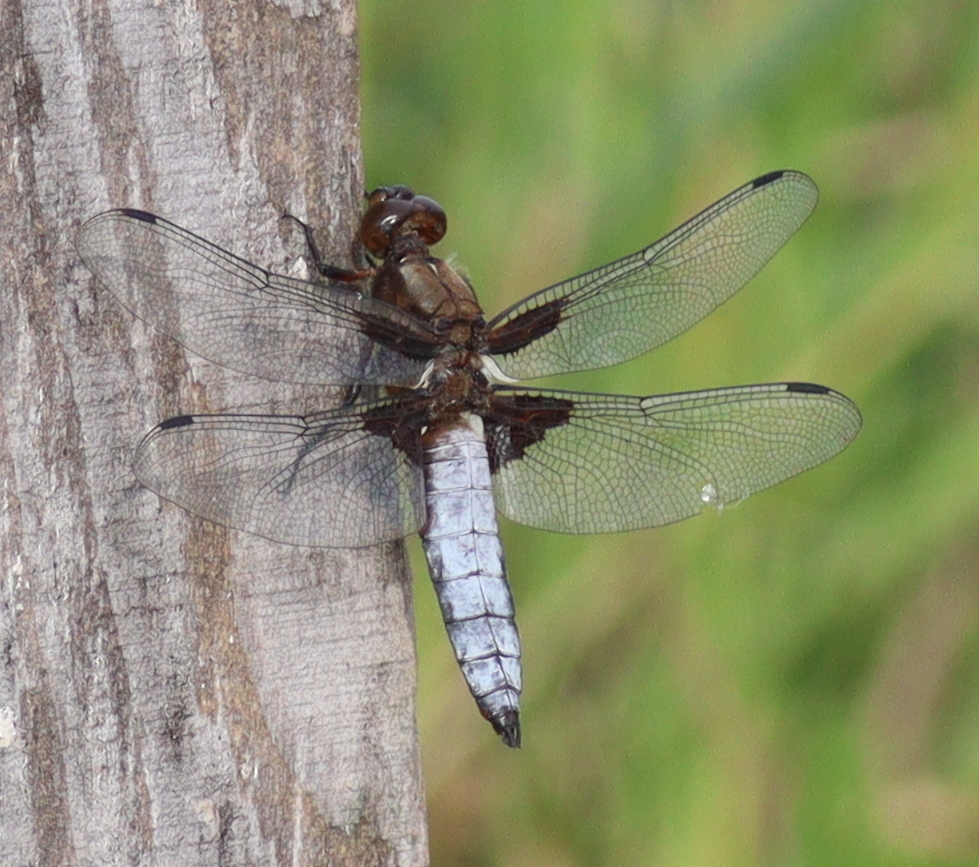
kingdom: Animalia
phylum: Arthropoda
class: Insecta
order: Odonata
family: Libellulidae
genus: Libellula
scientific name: Libellula depressa
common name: Broad-bodied chaser
